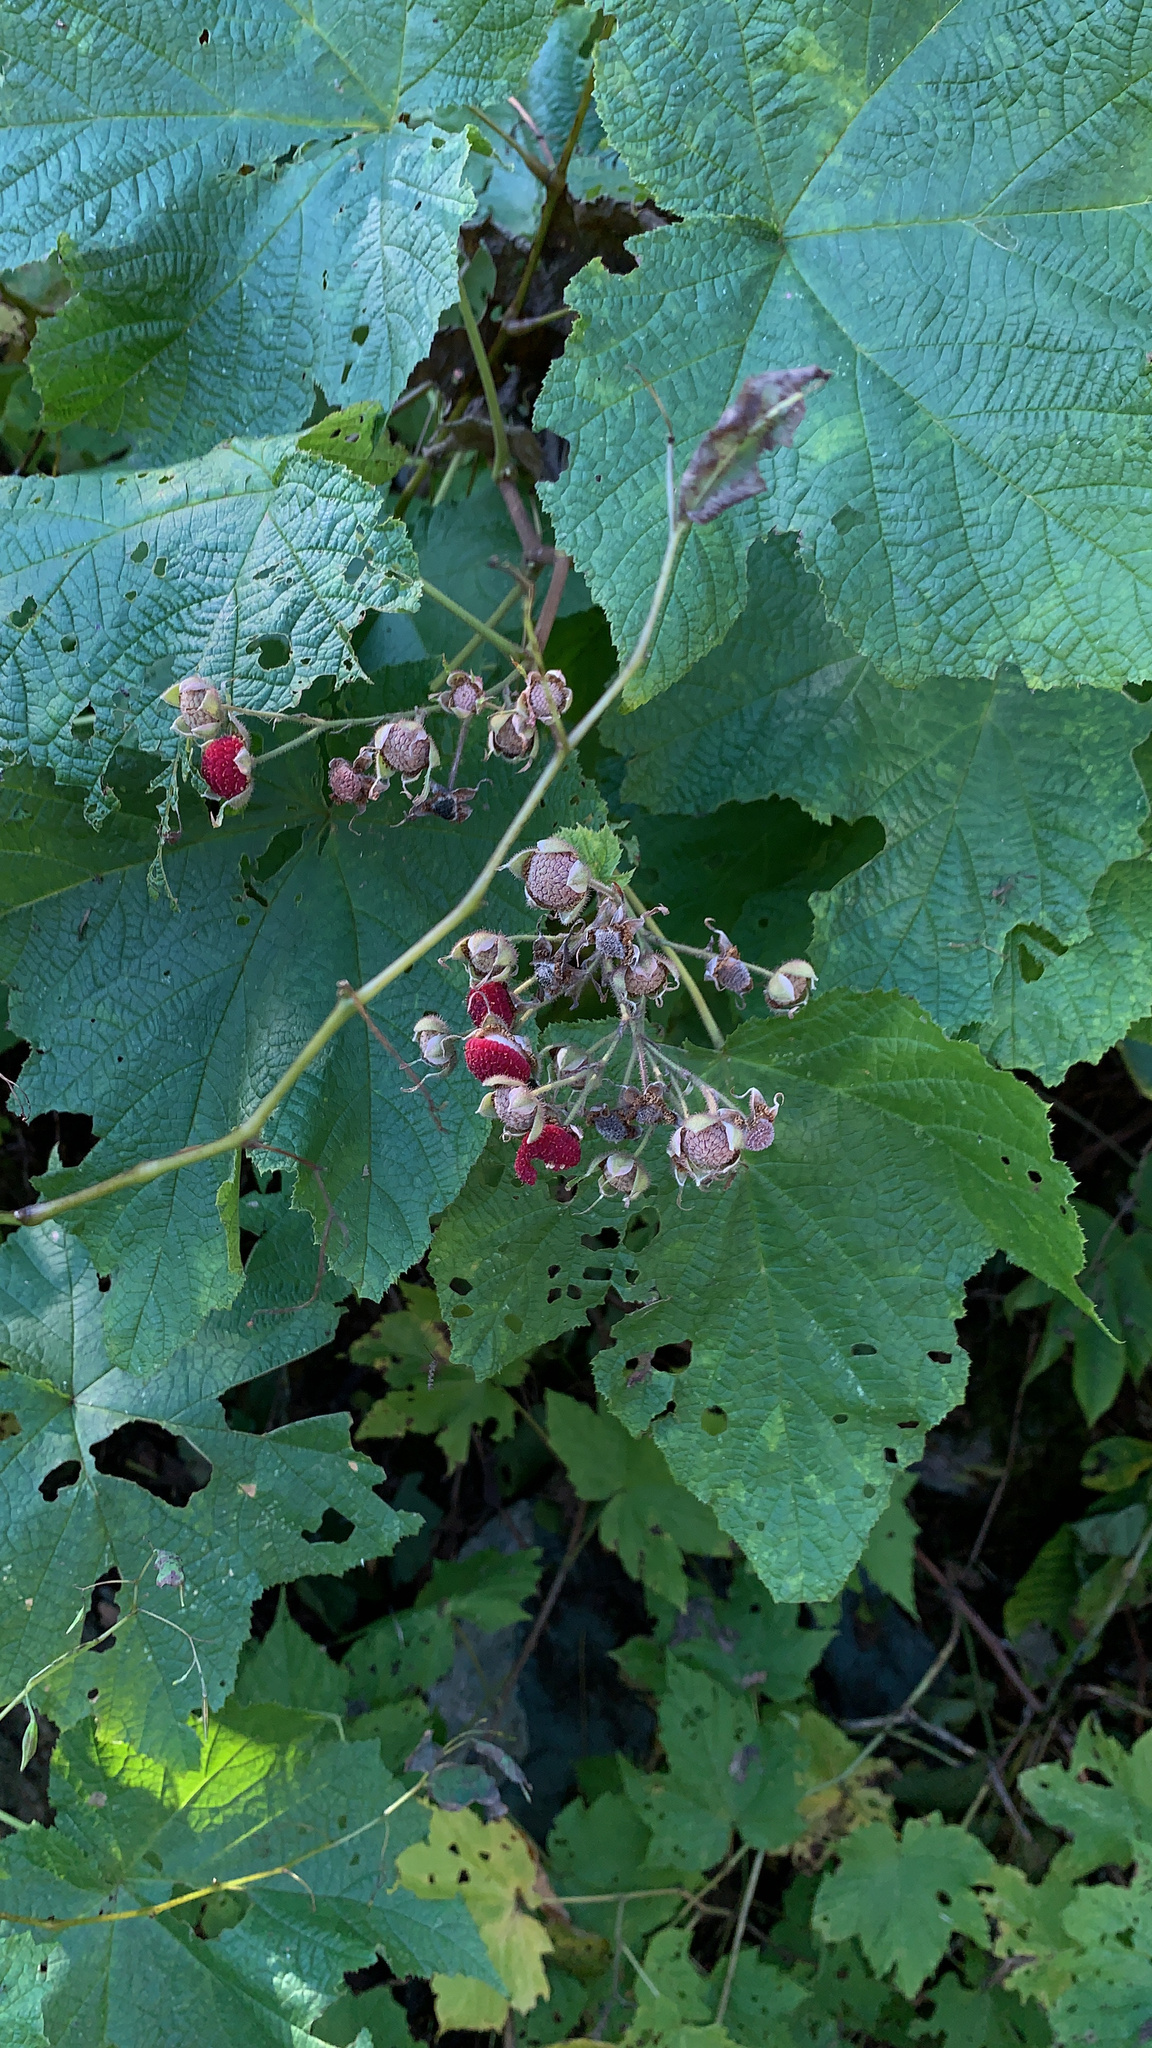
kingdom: Plantae
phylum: Tracheophyta
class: Magnoliopsida
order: Rosales
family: Rosaceae
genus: Rubus
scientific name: Rubus odoratus
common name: Purple-flowered raspberry
